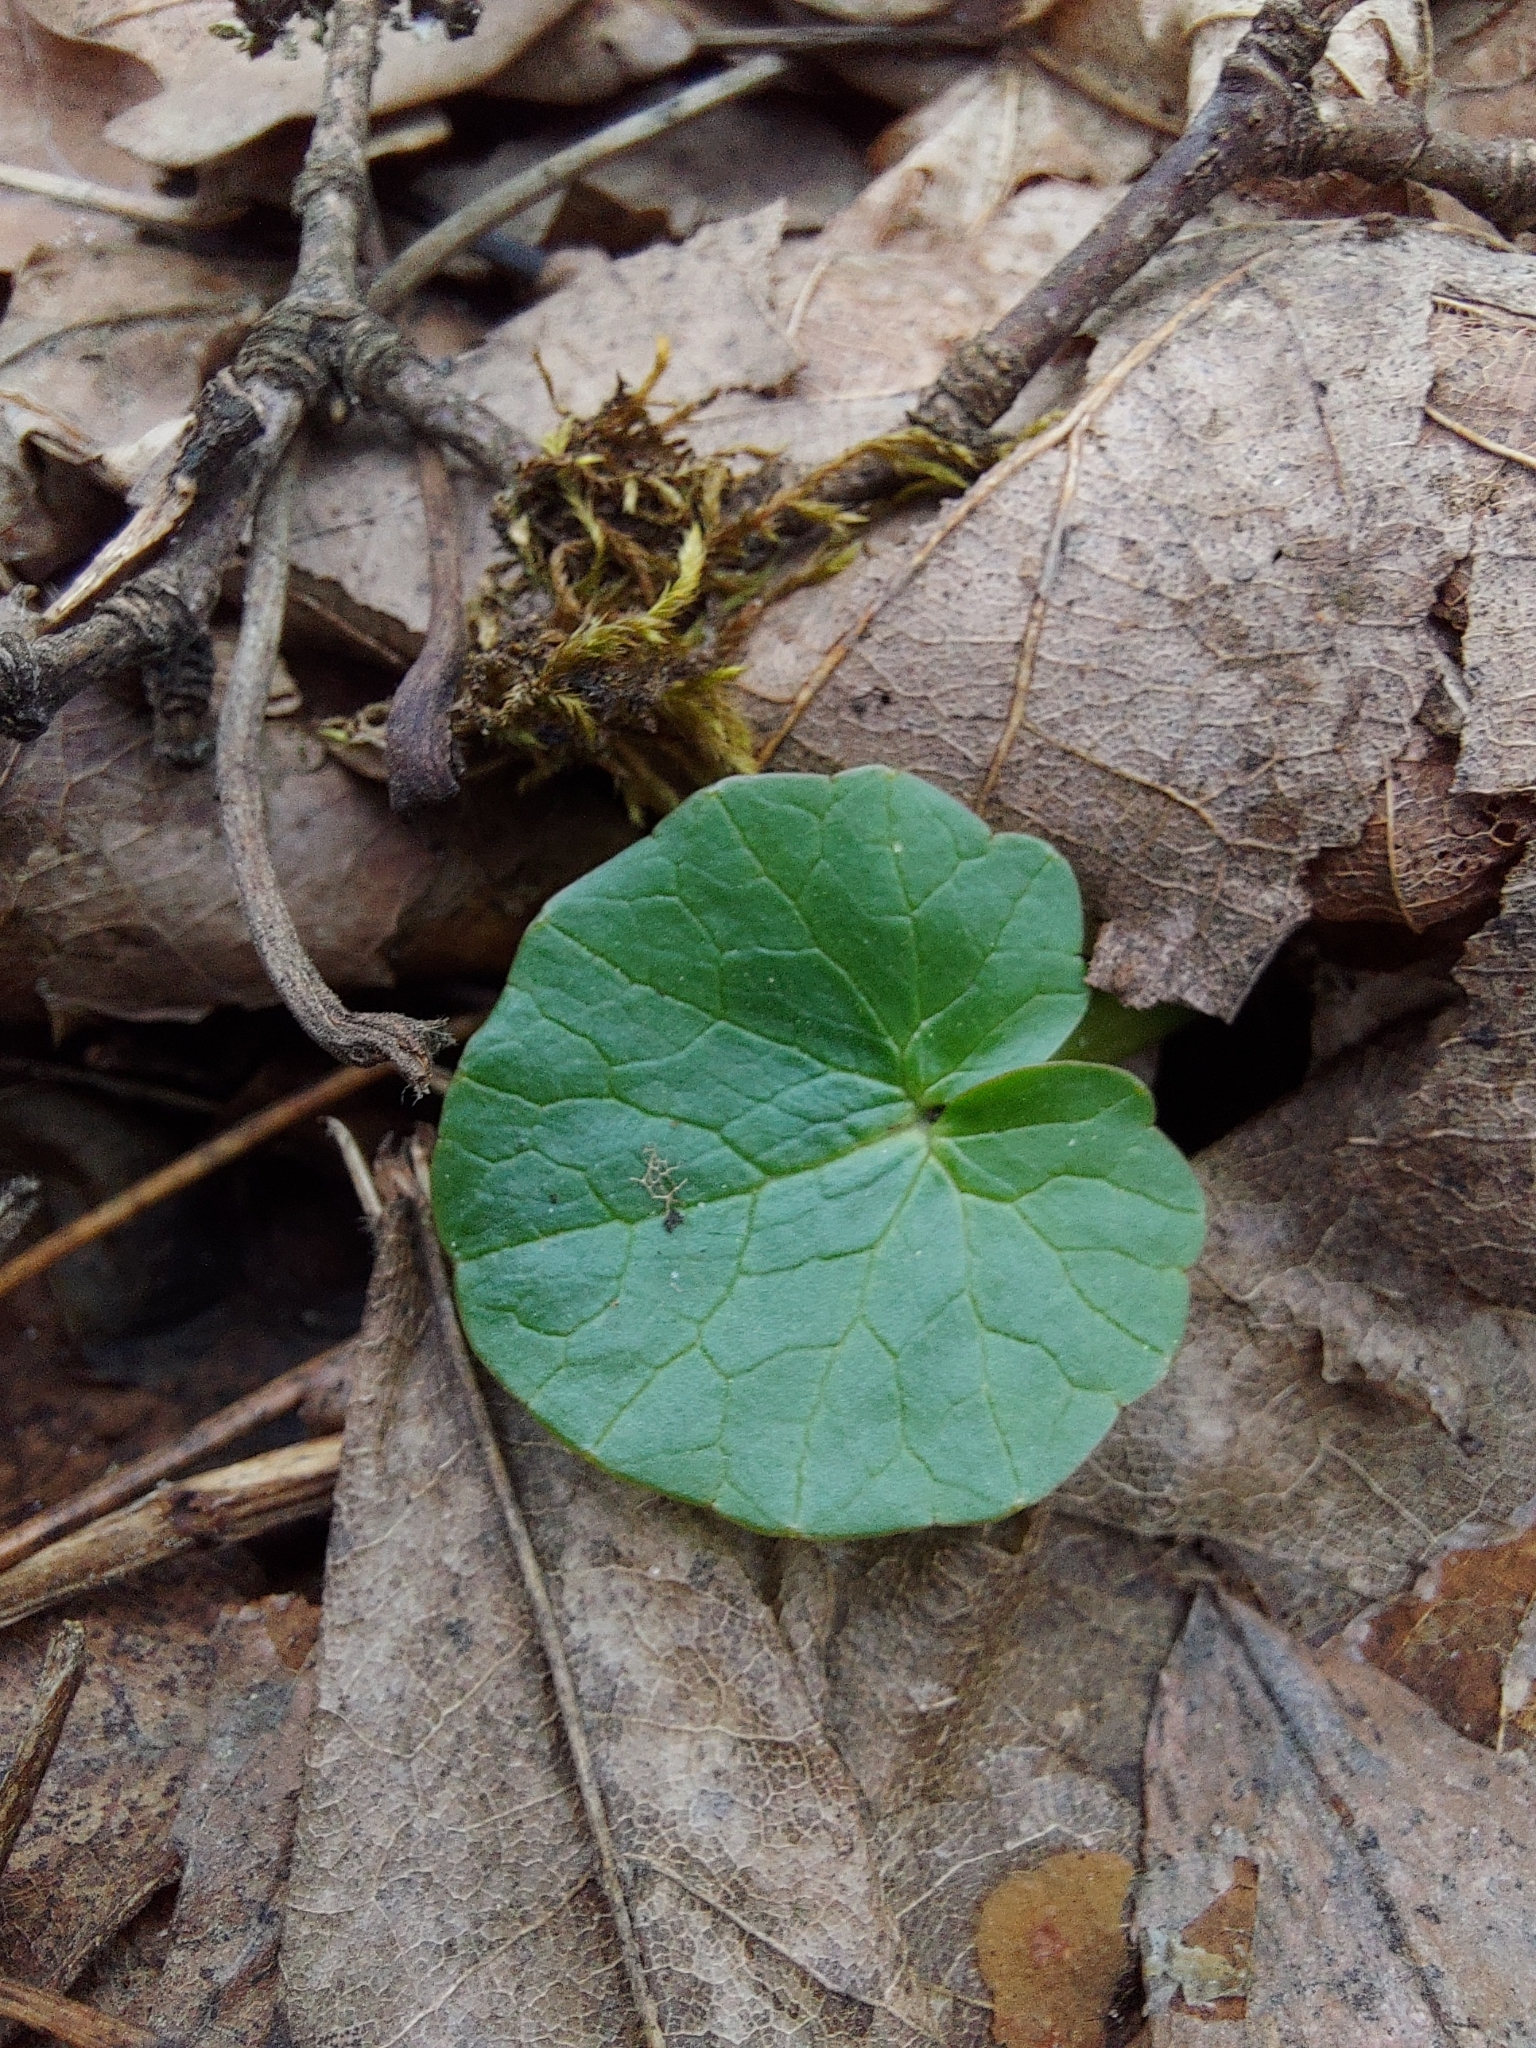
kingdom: Plantae
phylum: Tracheophyta
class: Magnoliopsida
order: Ranunculales
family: Ranunculaceae
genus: Ficaria
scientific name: Ficaria verna
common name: Lesser celandine
